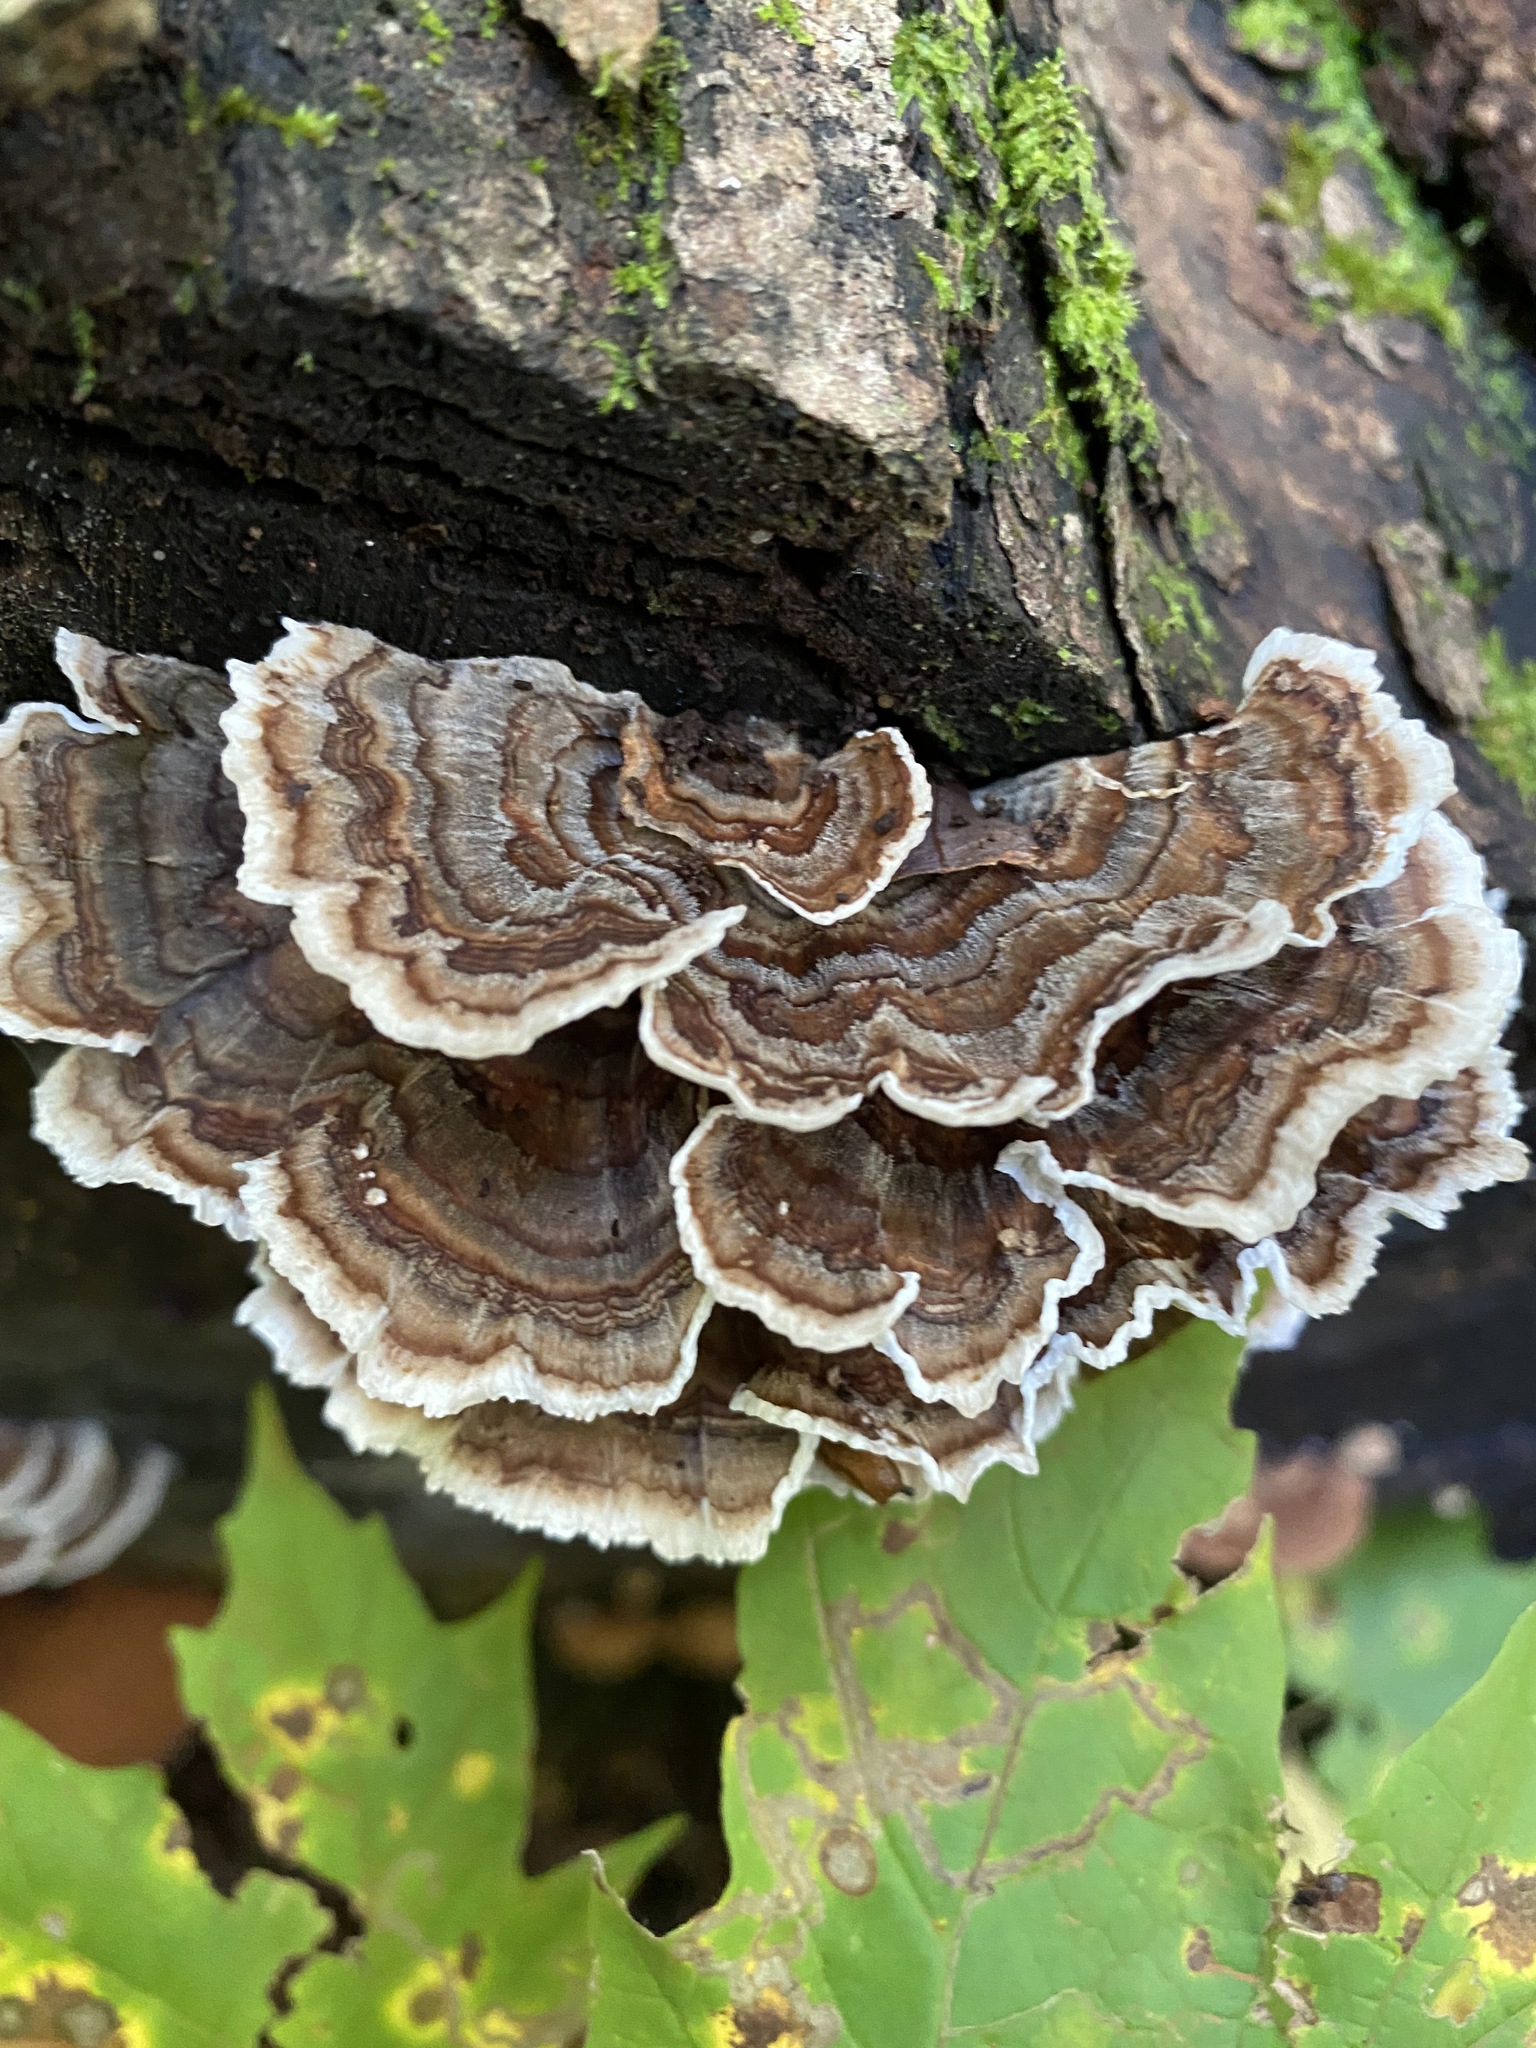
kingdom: Fungi
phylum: Basidiomycota
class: Agaricomycetes
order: Polyporales
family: Polyporaceae
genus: Trametes
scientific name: Trametes versicolor
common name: Turkeytail
